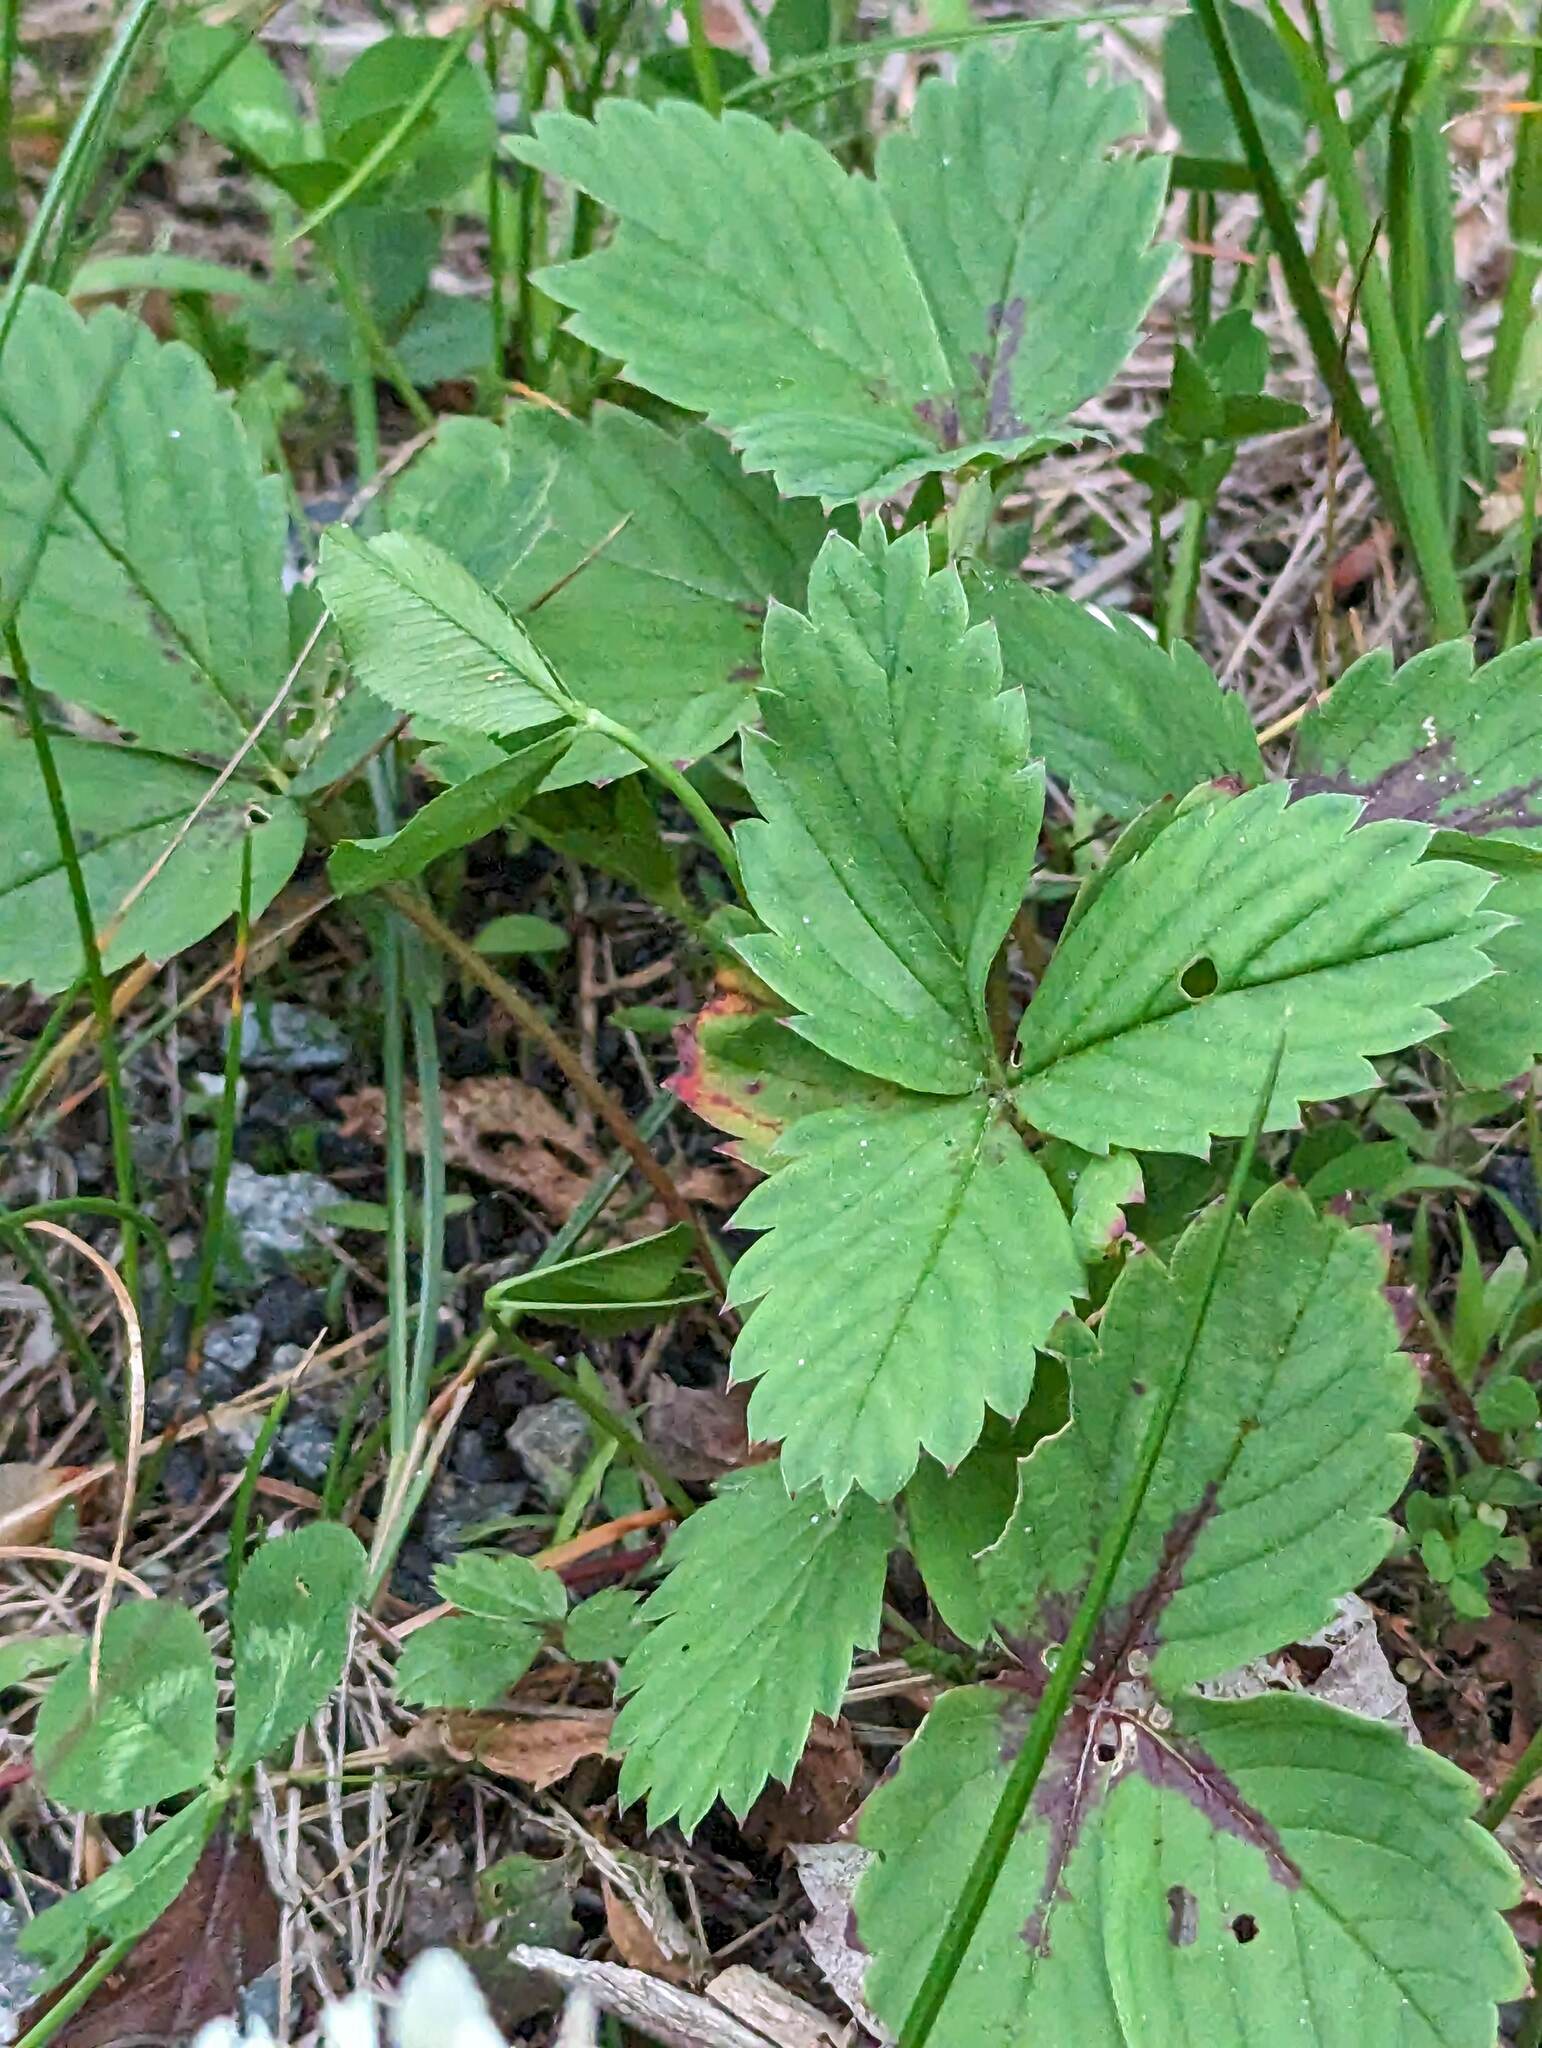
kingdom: Plantae
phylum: Tracheophyta
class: Magnoliopsida
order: Rosales
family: Rosaceae
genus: Fragaria
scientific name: Fragaria virginiana
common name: Thickleaved wild strawberry
